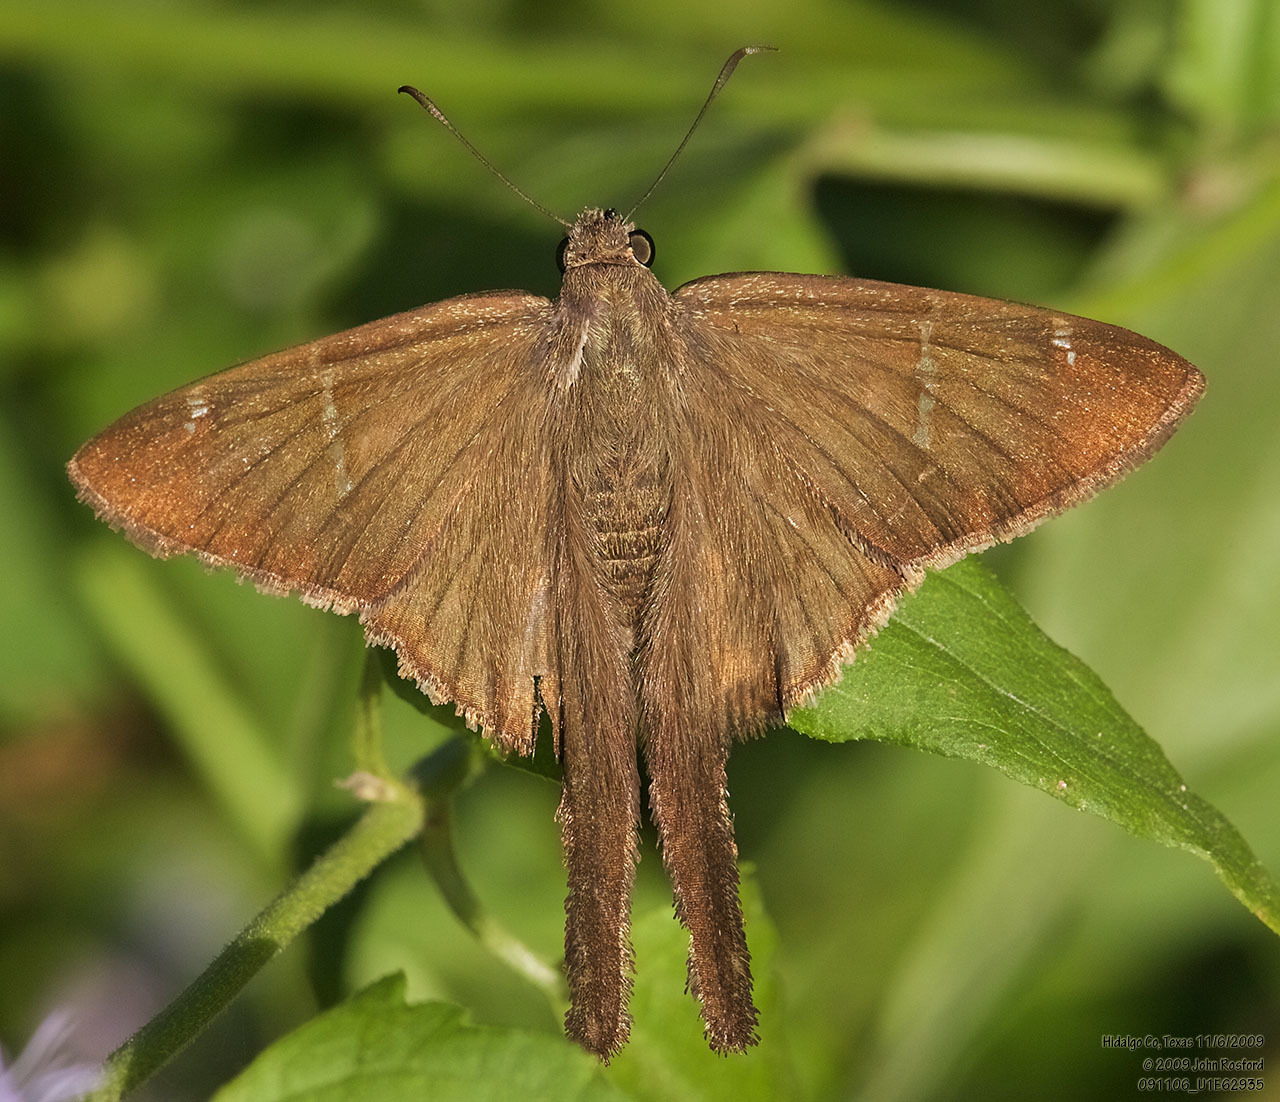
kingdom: Animalia
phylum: Arthropoda
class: Insecta
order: Lepidoptera
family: Hesperiidae
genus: Urbanus
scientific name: Urbanus procne
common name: Brown longtail
